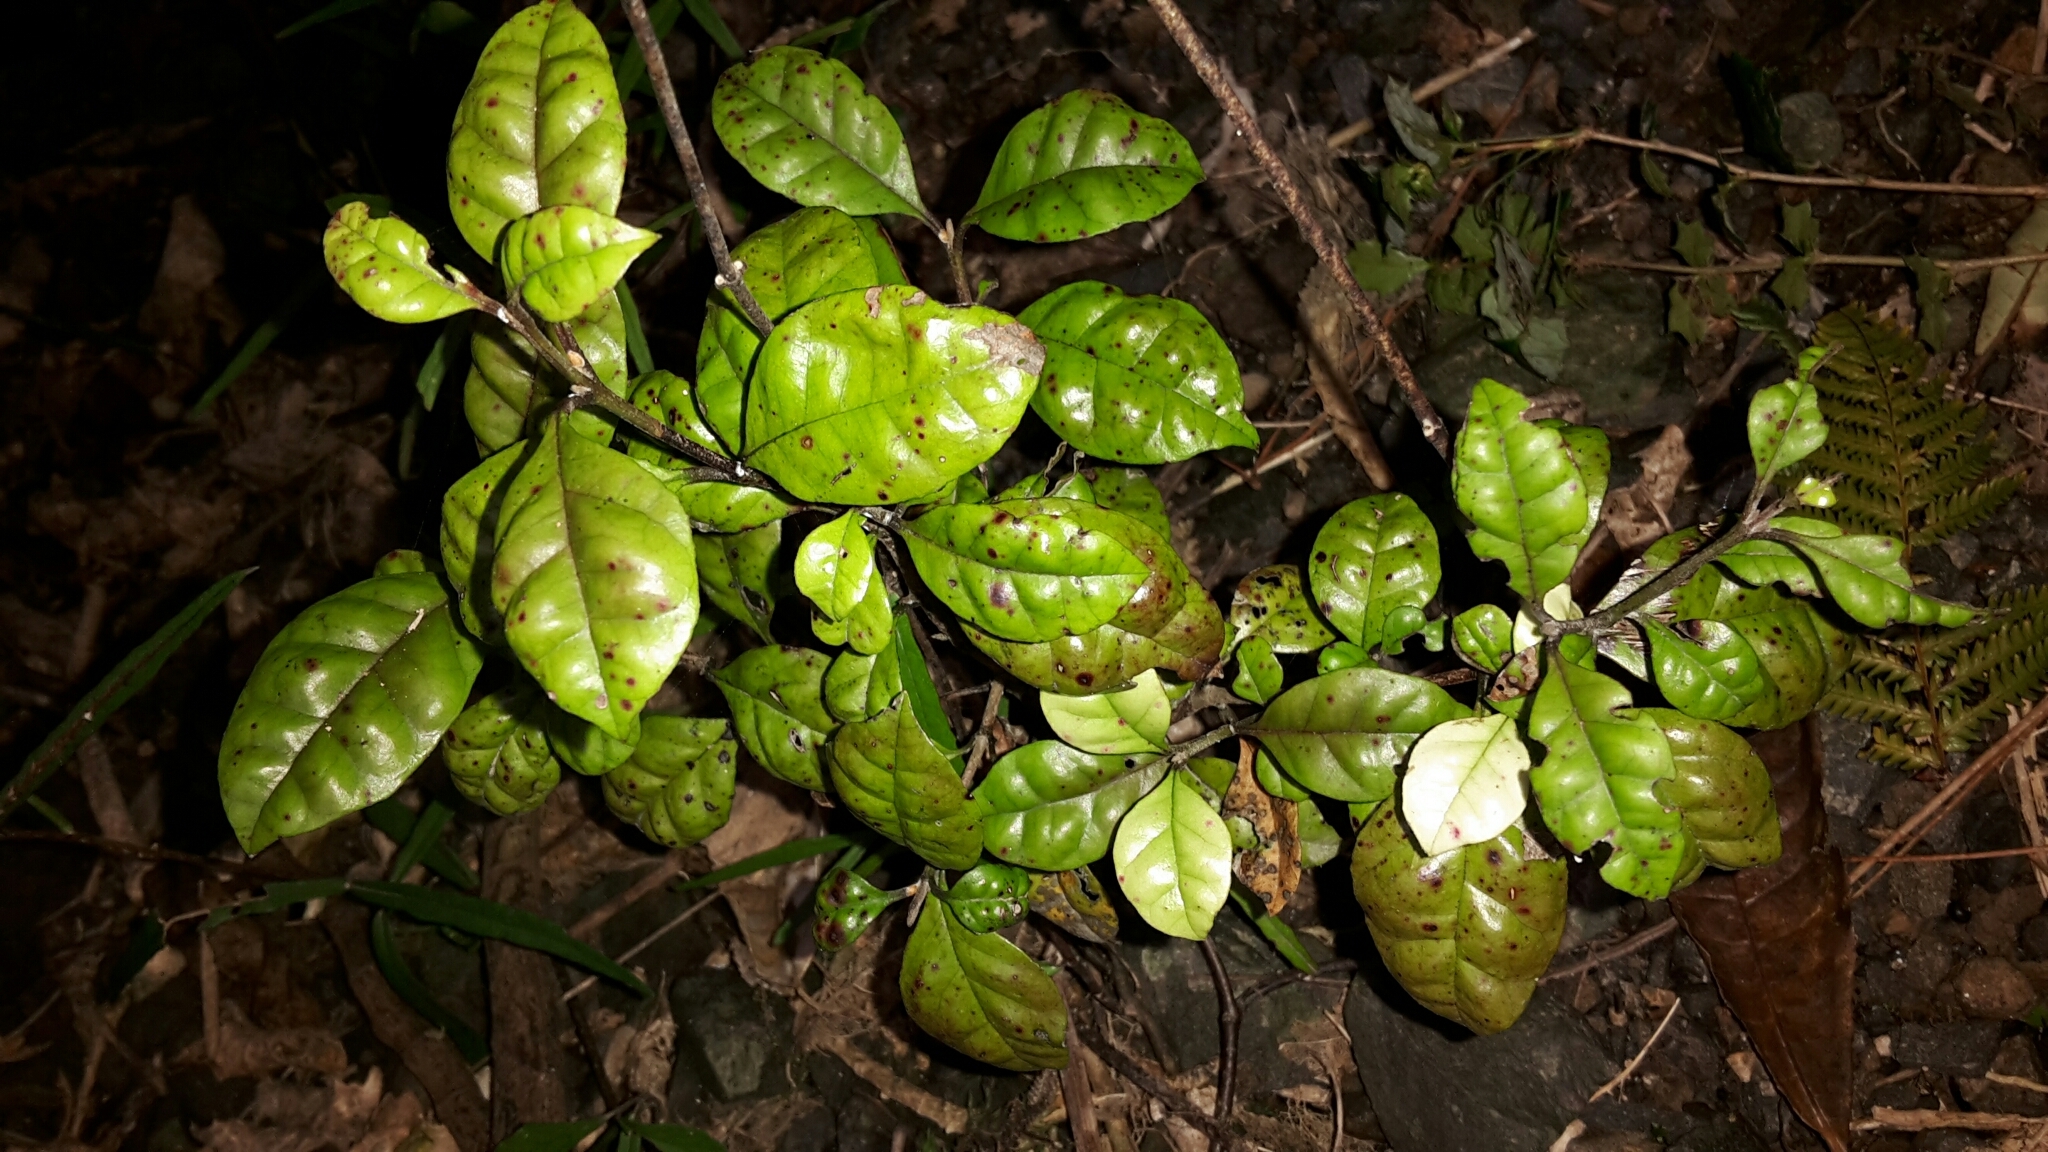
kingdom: Plantae
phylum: Tracheophyta
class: Magnoliopsida
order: Myrtales
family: Myrtaceae
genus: Lophomyrtus
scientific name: Lophomyrtus bullata
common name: Rama rama
